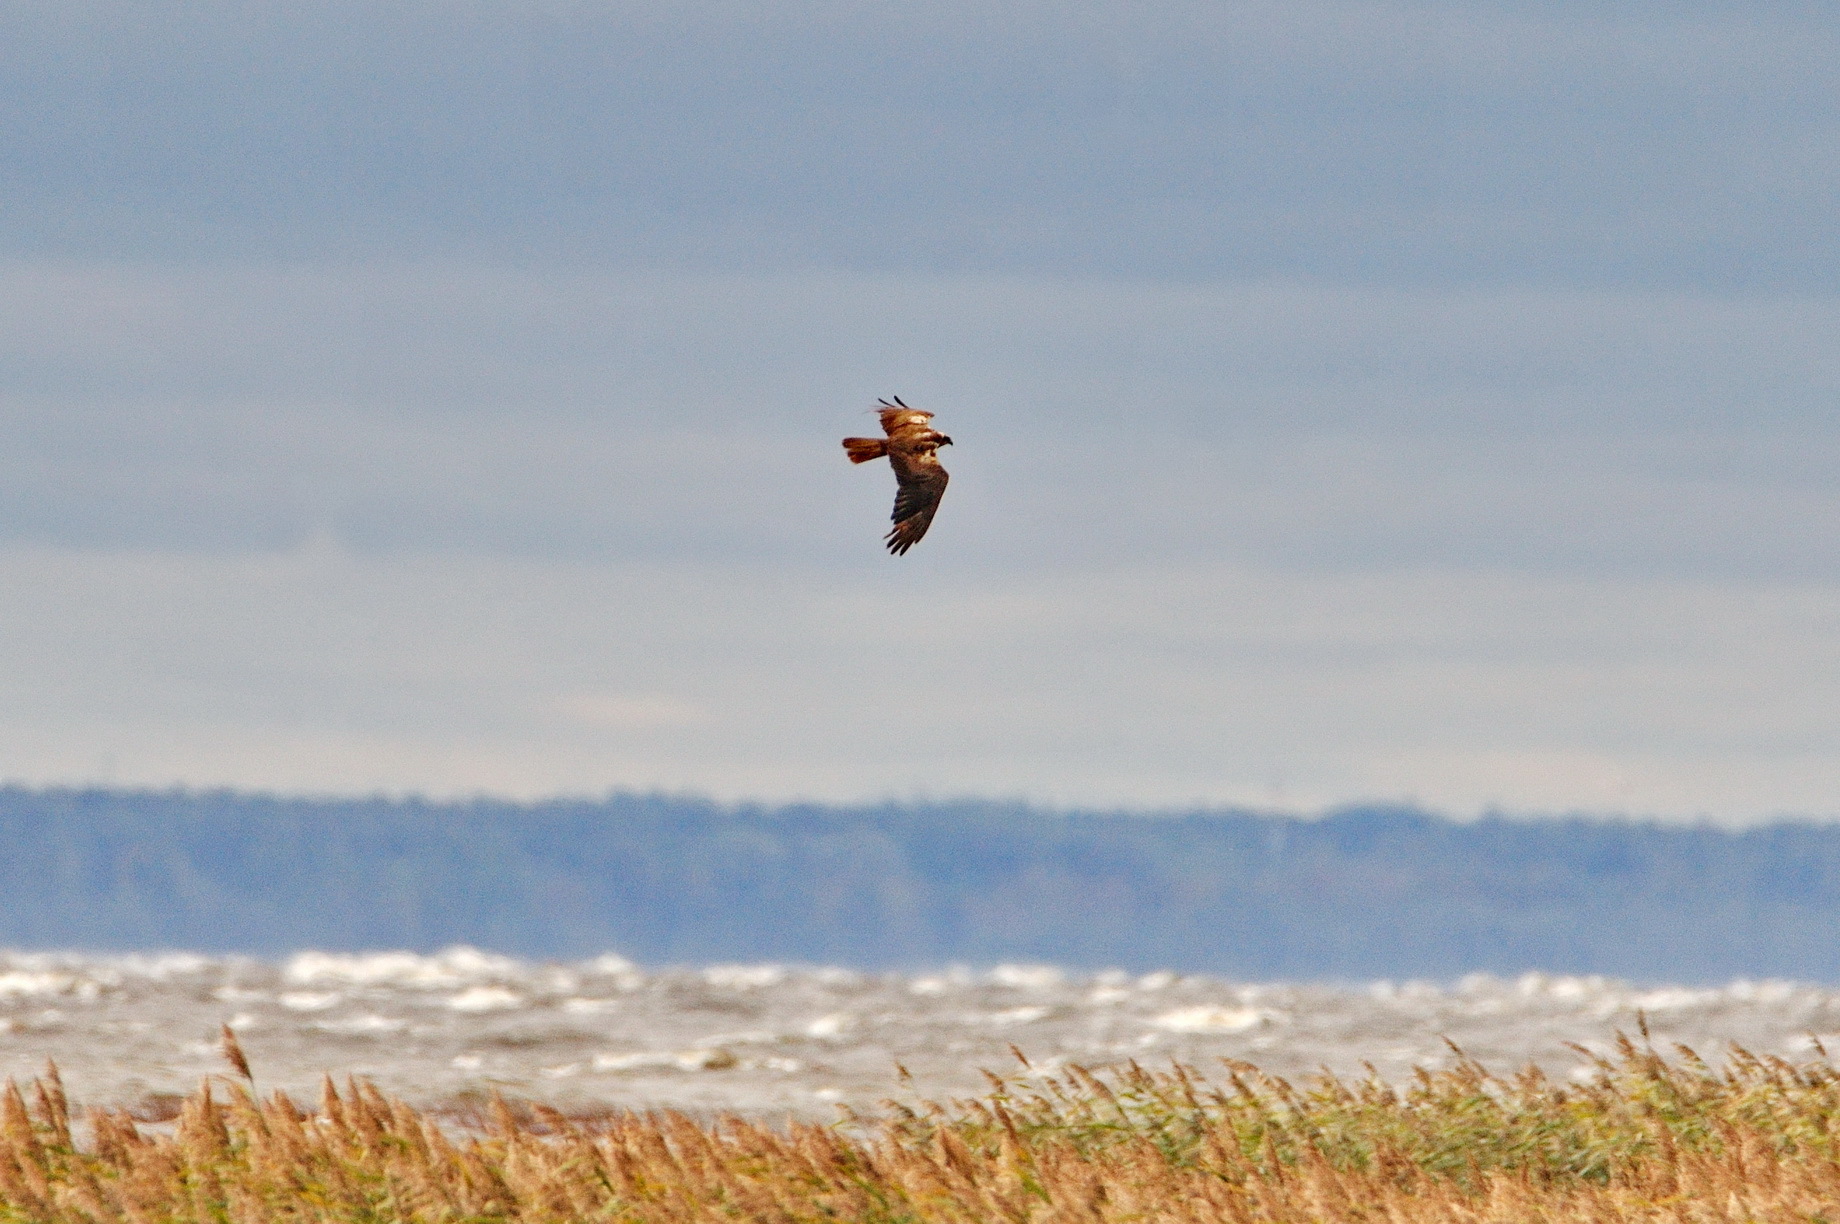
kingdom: Animalia
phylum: Chordata
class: Aves
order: Accipitriformes
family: Accipitridae
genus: Circus
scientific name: Circus aeruginosus
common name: Western marsh harrier
